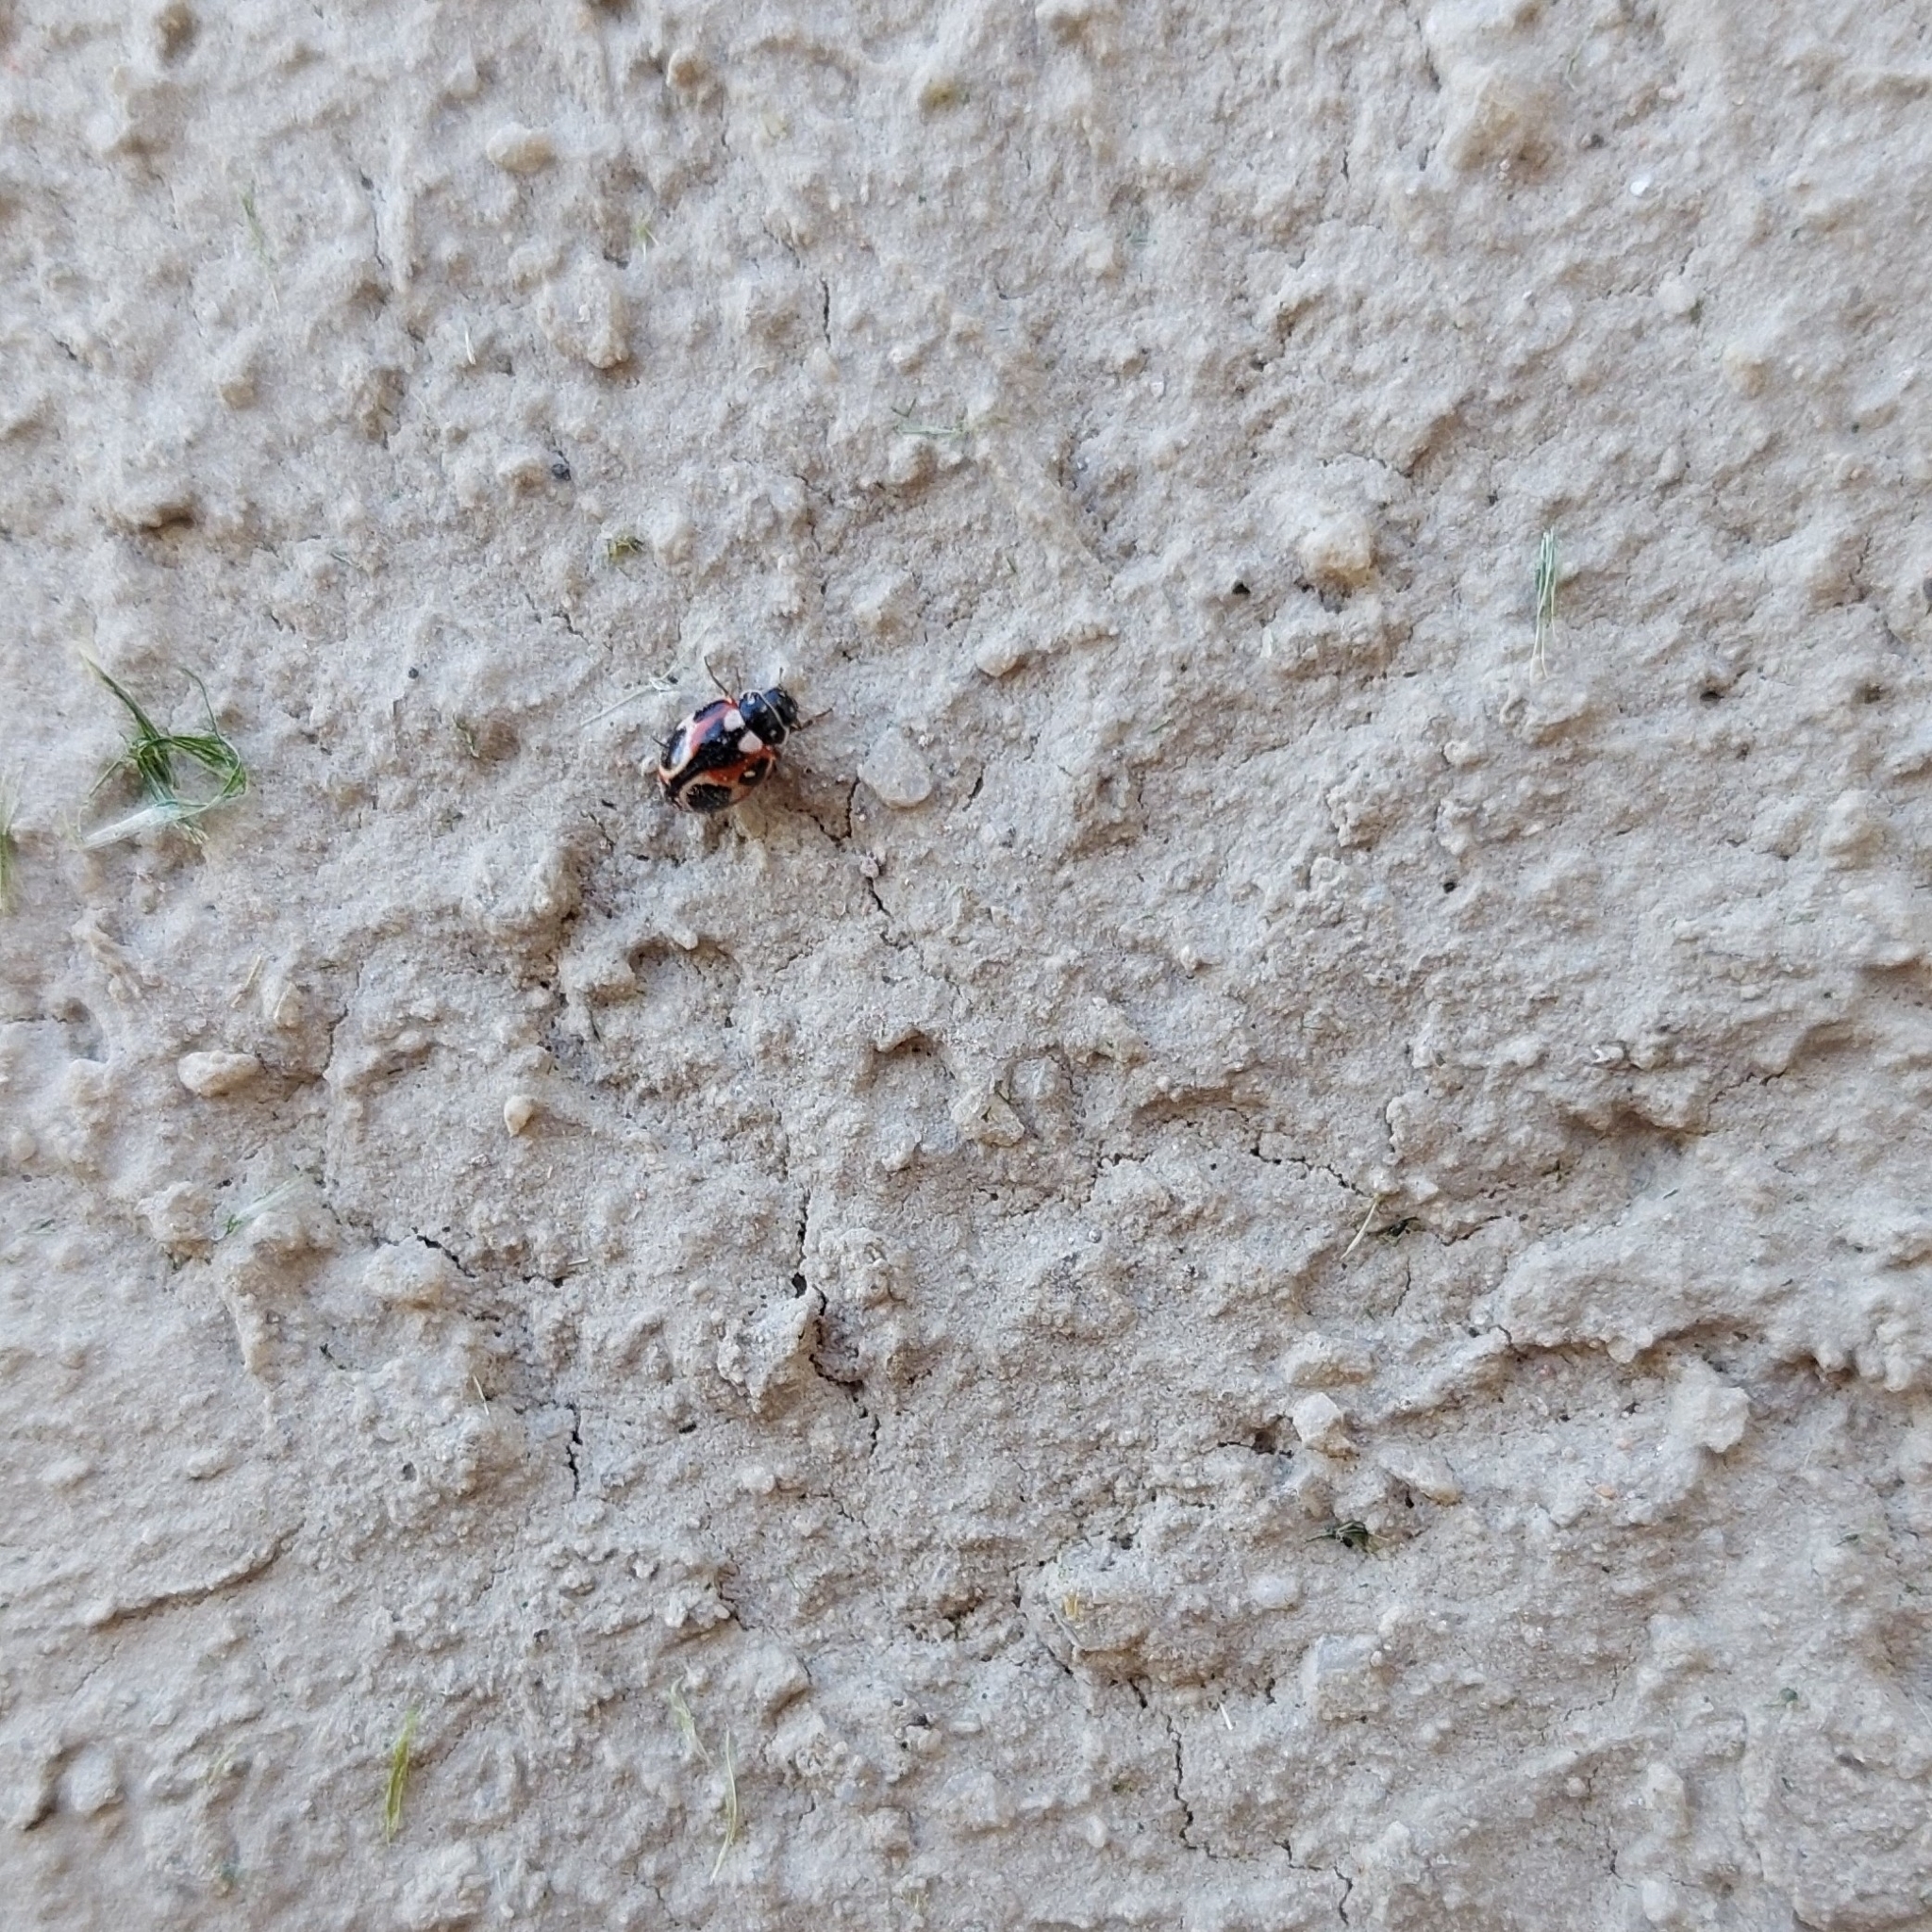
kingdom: Animalia
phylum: Arthropoda
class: Insecta
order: Coleoptera
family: Coccinellidae
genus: Cycloneda
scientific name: Cycloneda ancoralis
